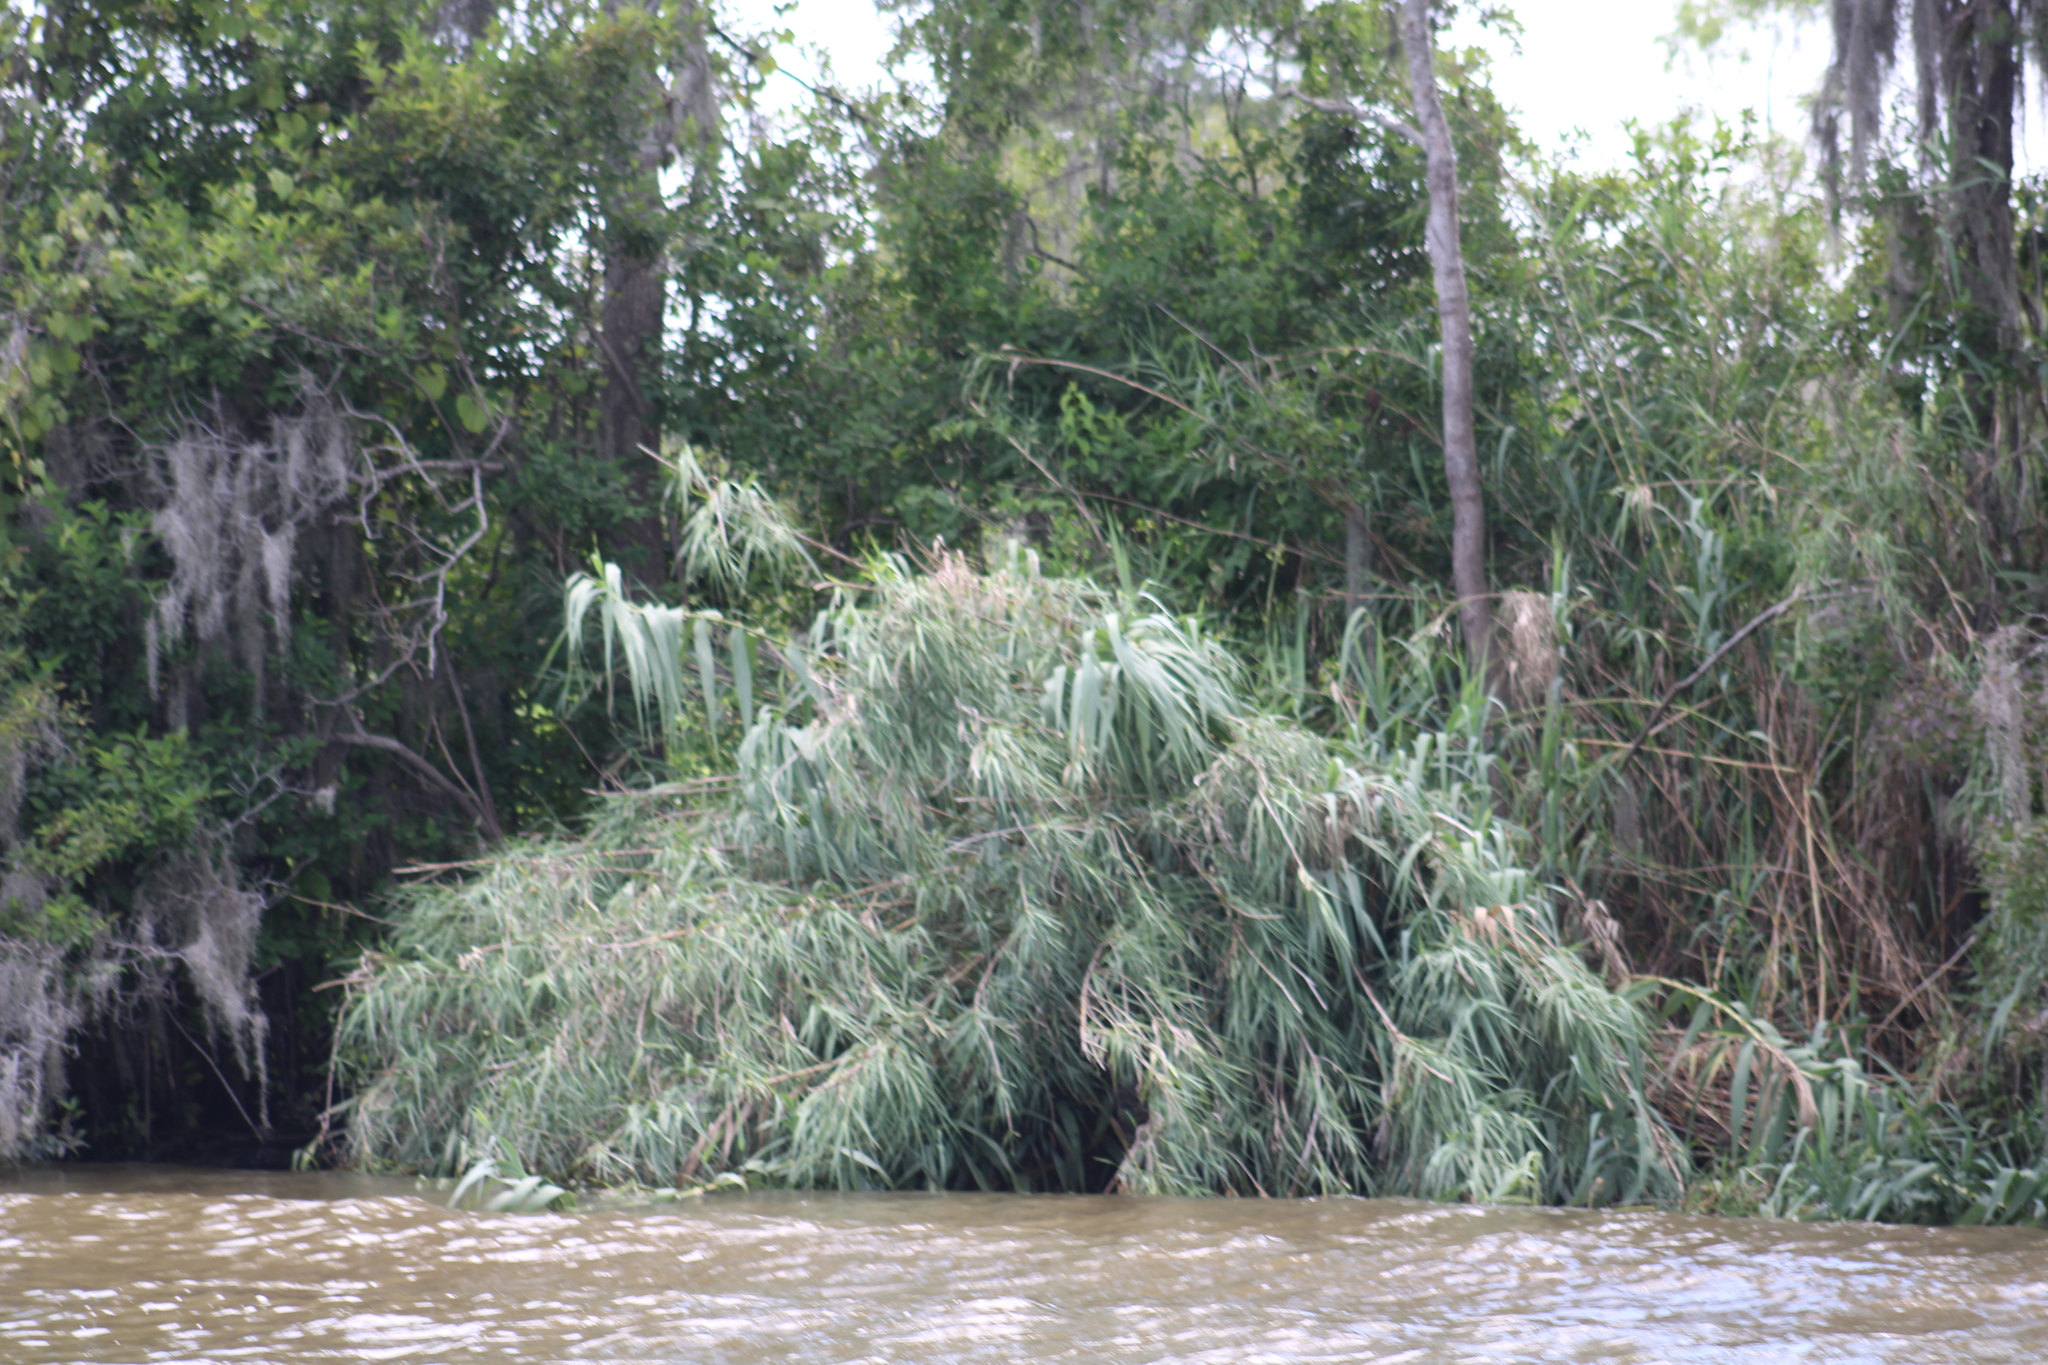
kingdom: Plantae
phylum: Tracheophyta
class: Liliopsida
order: Poales
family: Poaceae
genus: Arundo
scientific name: Arundo donax
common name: Giant reed
